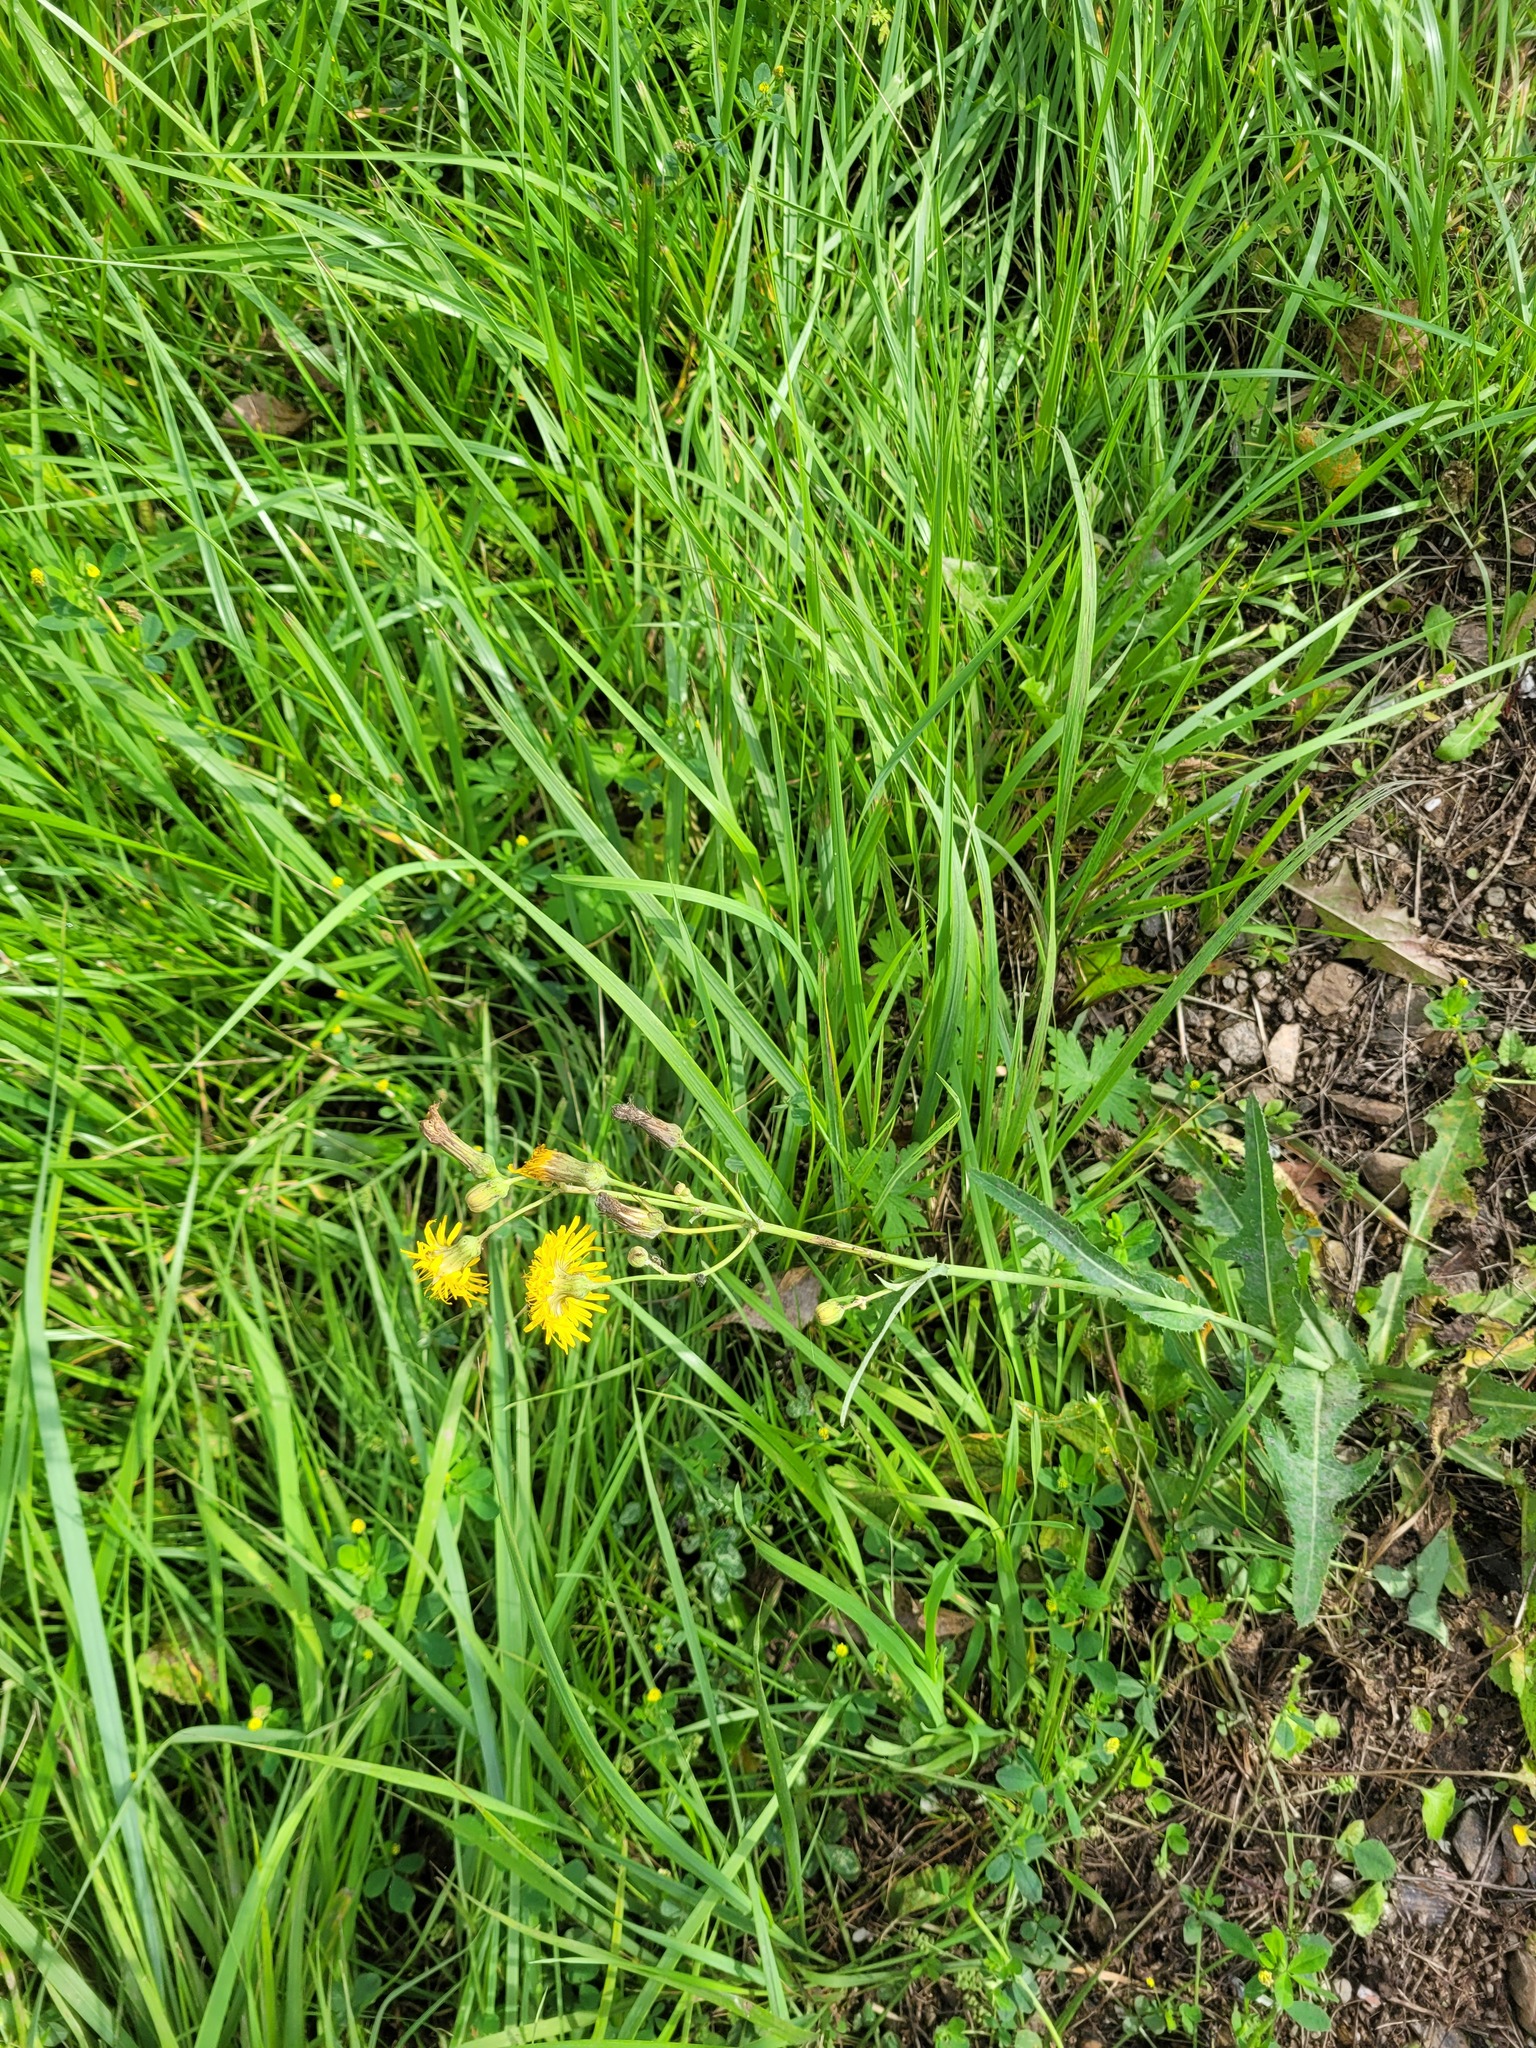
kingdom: Plantae
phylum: Tracheophyta
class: Magnoliopsida
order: Asterales
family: Asteraceae
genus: Sonchus
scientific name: Sonchus arvensis
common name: Perennial sow-thistle
